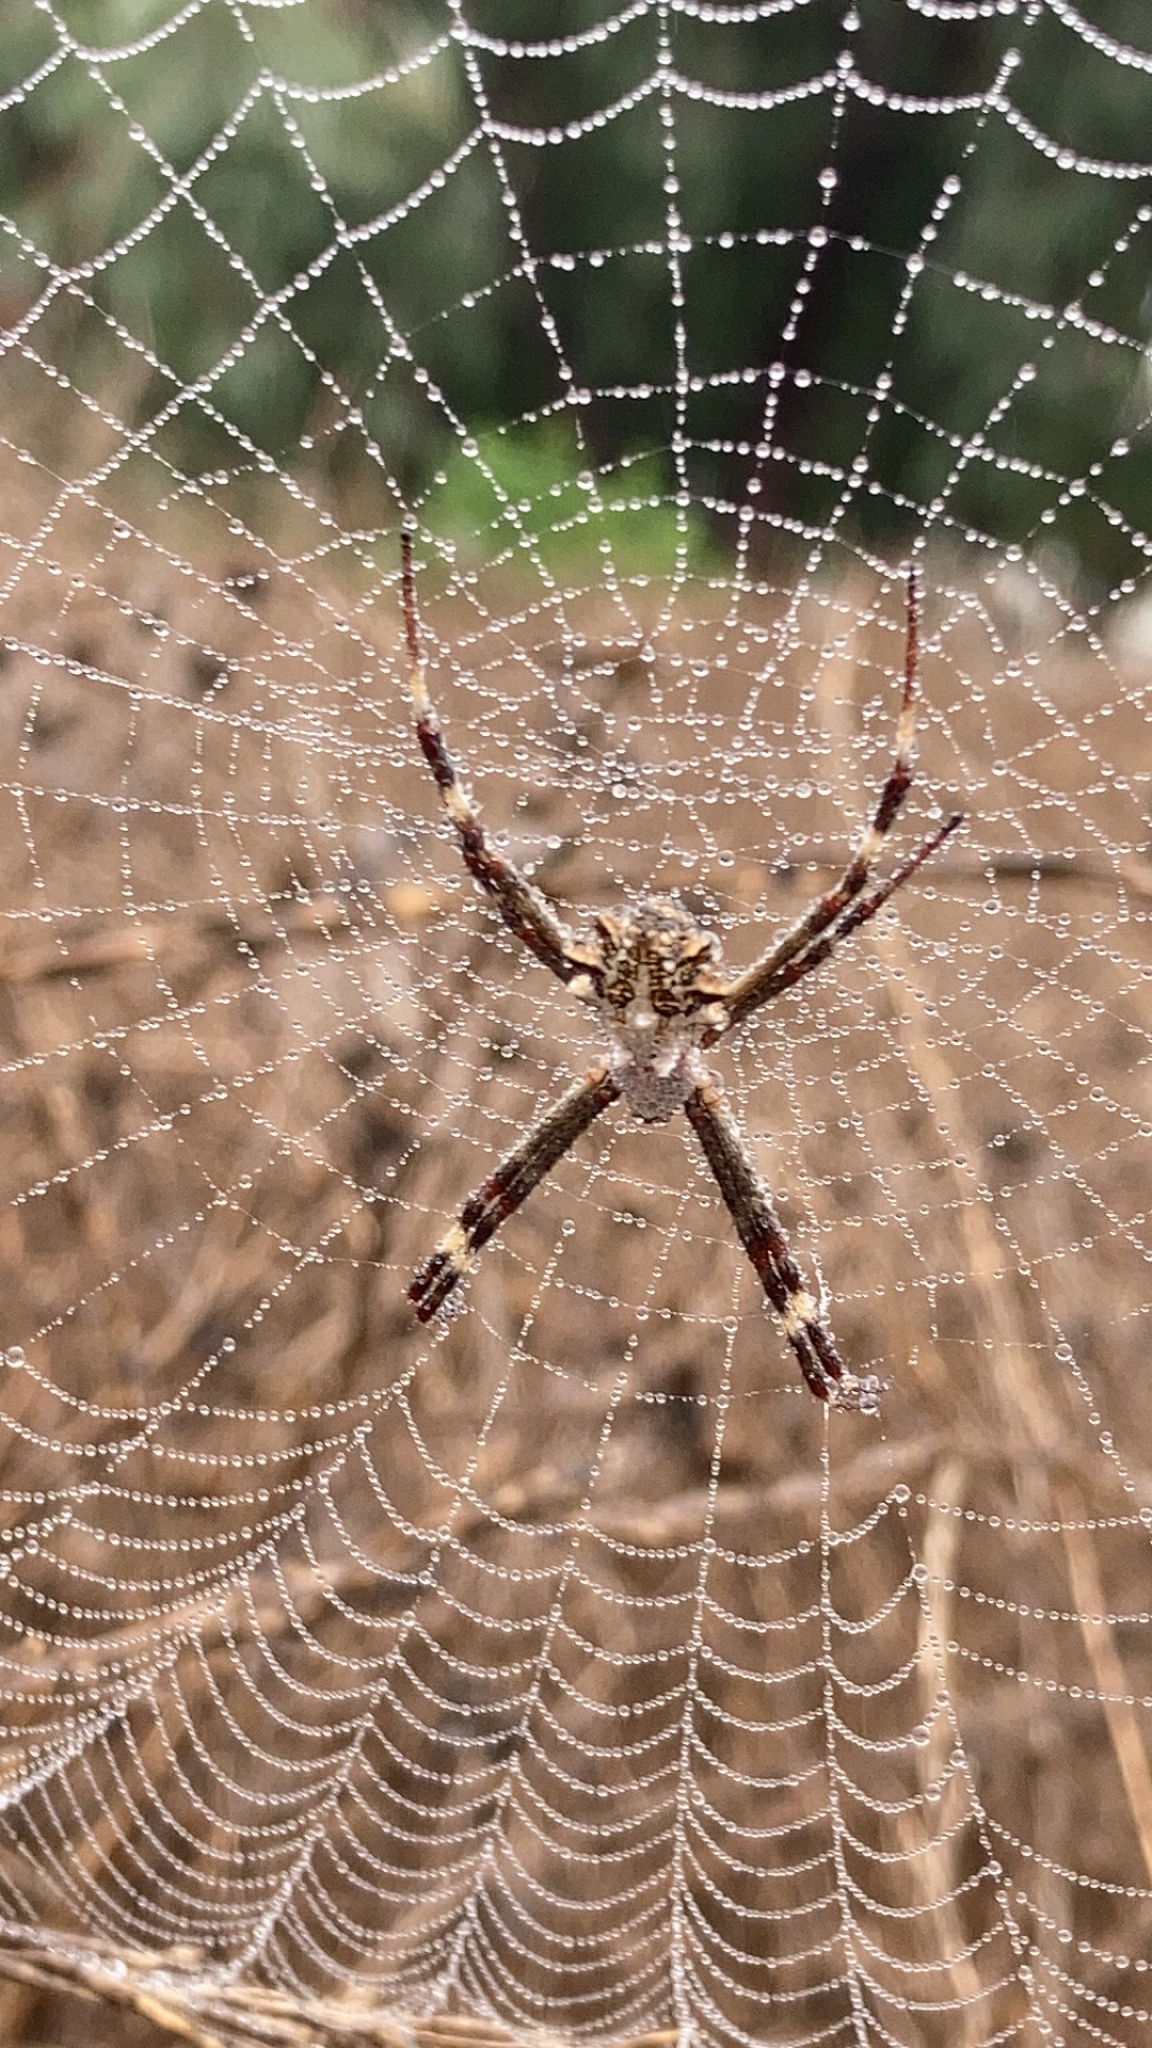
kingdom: Animalia
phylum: Arthropoda
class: Arachnida
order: Araneae
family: Araneidae
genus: Argiope
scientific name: Argiope argentata
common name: Orb weavers
